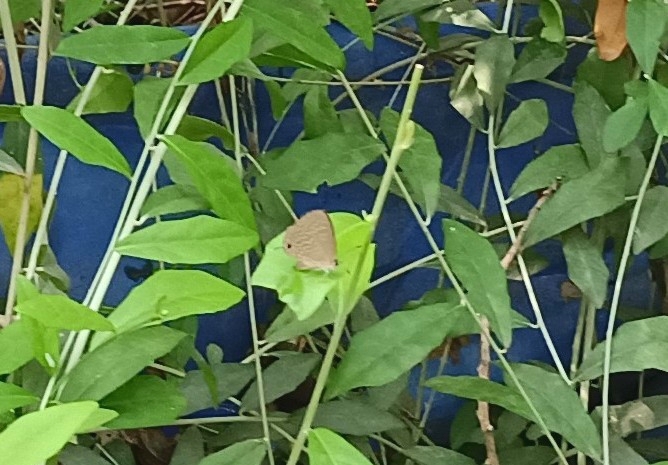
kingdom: Animalia
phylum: Arthropoda
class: Insecta
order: Lepidoptera
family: Lycaenidae
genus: Jamides
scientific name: Jamides bochus
